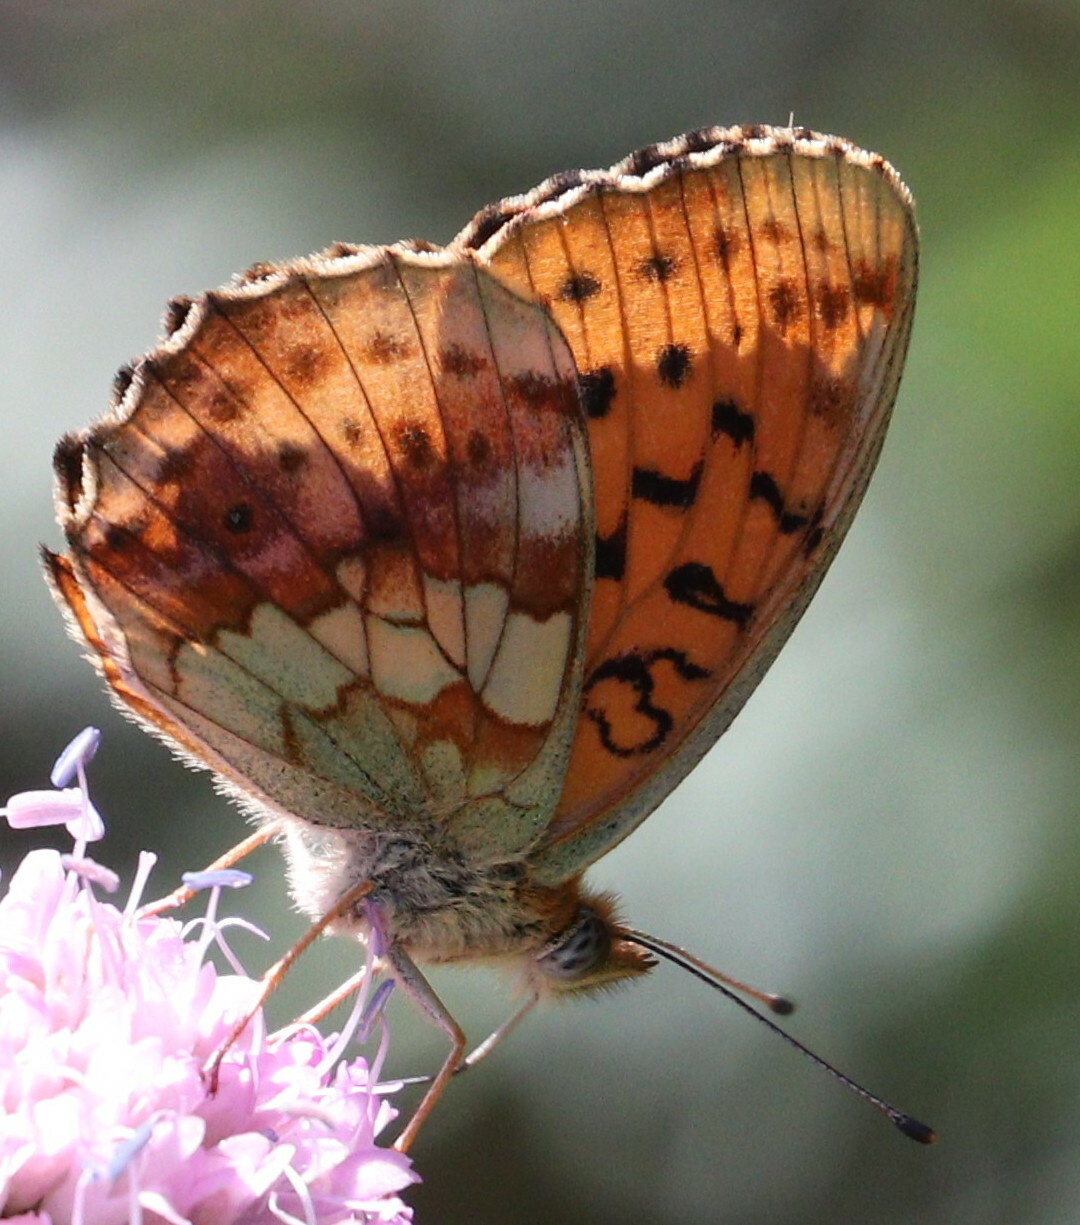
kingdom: Animalia
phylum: Arthropoda
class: Insecta
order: Lepidoptera
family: Nymphalidae
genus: Brenthis
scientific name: Brenthis daphne
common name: Marbled fritillary
